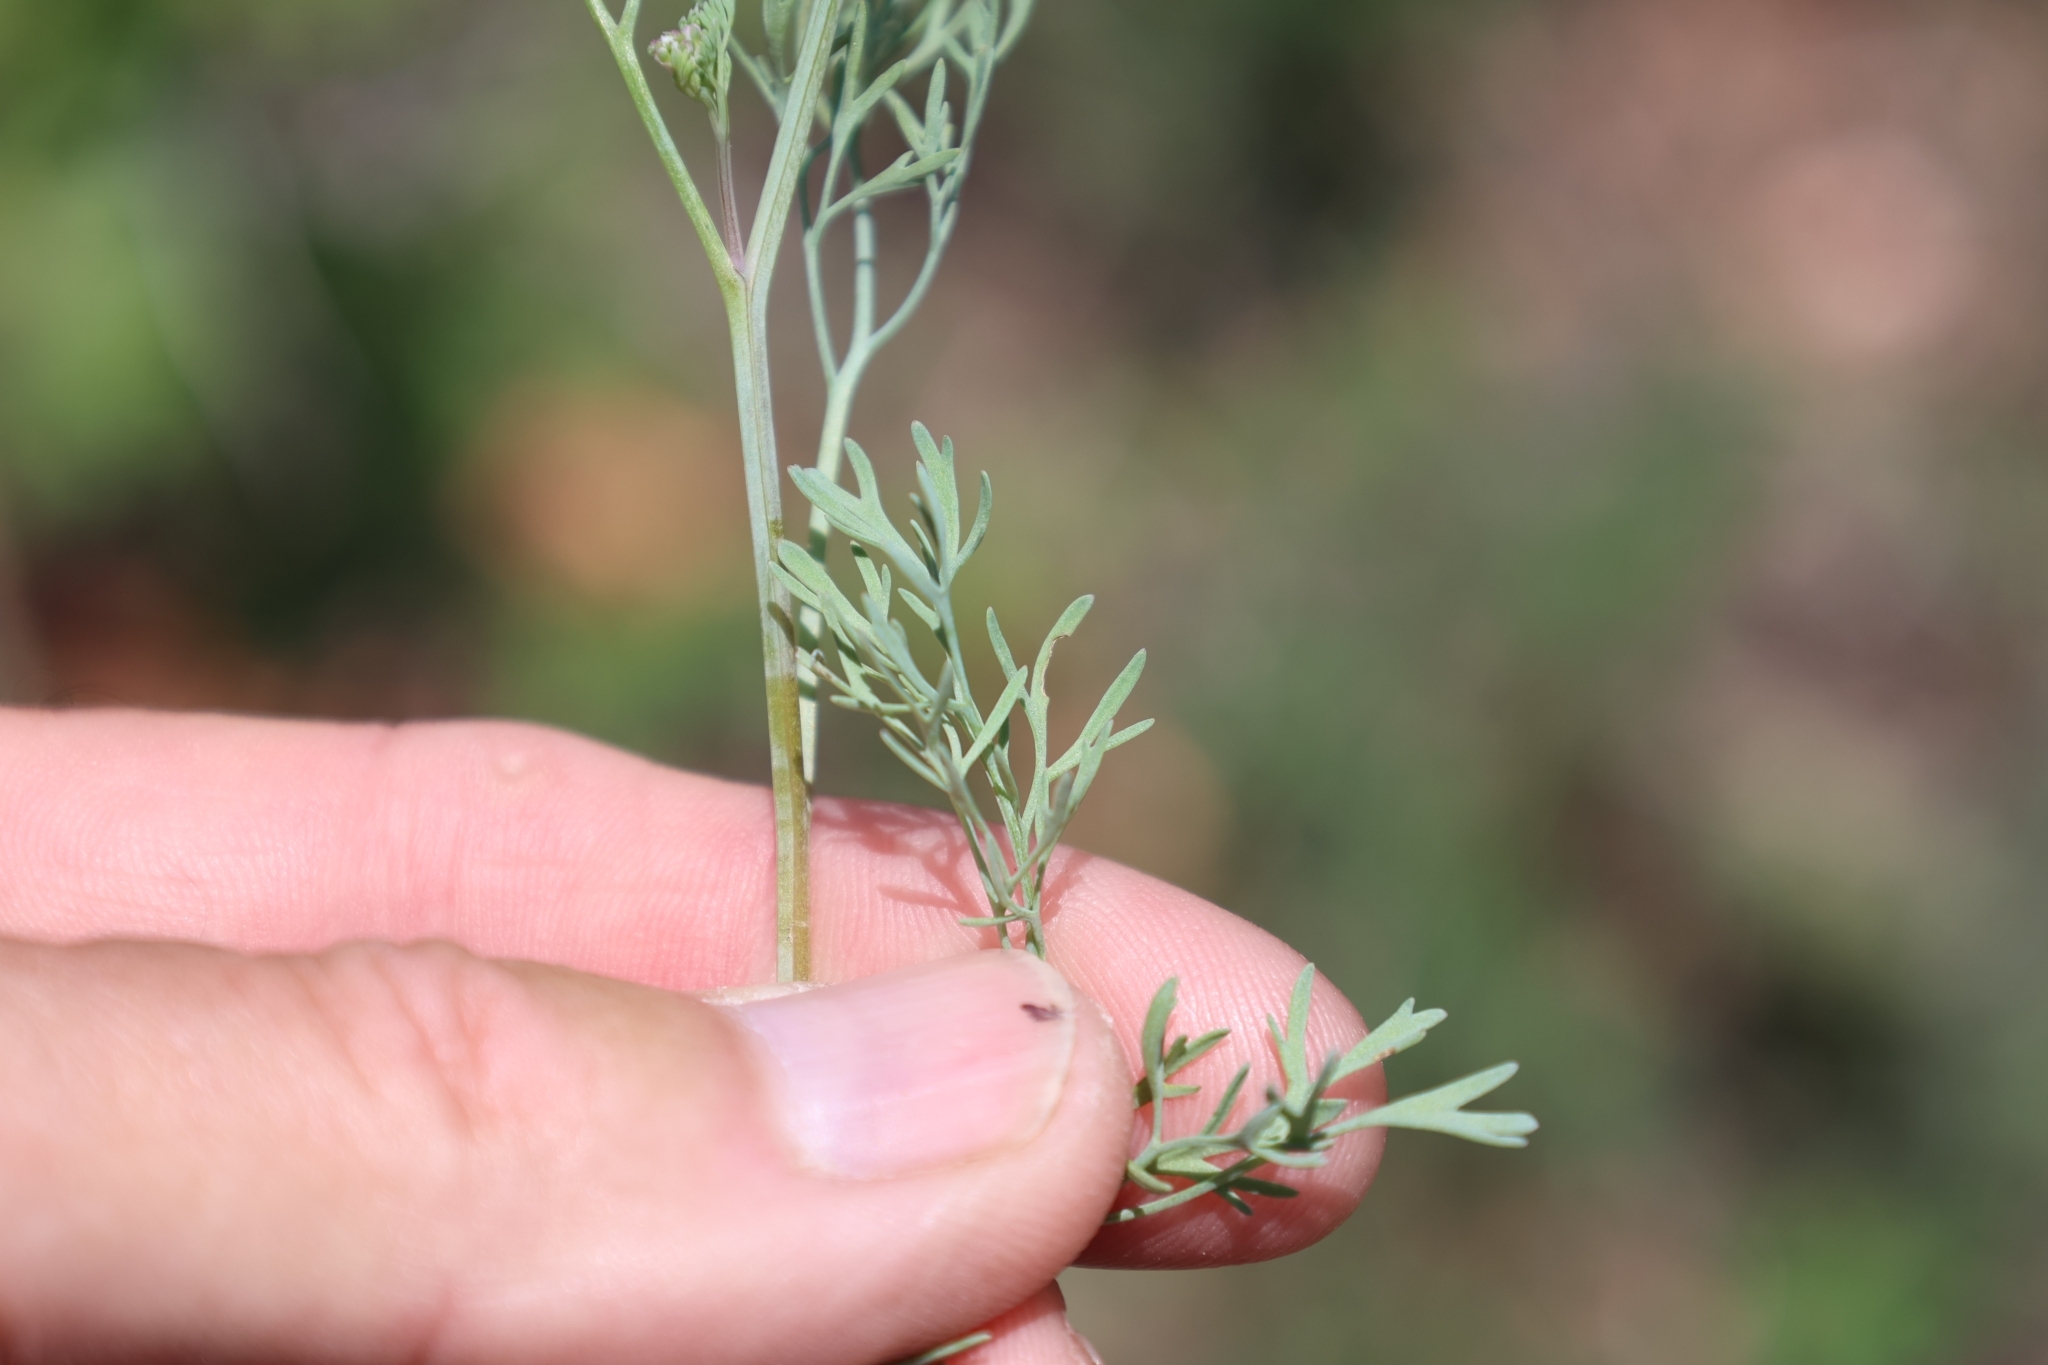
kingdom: Plantae
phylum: Tracheophyta
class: Magnoliopsida
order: Ranunculales
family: Papaveraceae
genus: Fumaria
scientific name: Fumaria parviflora
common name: Fine-leaved fumitory
